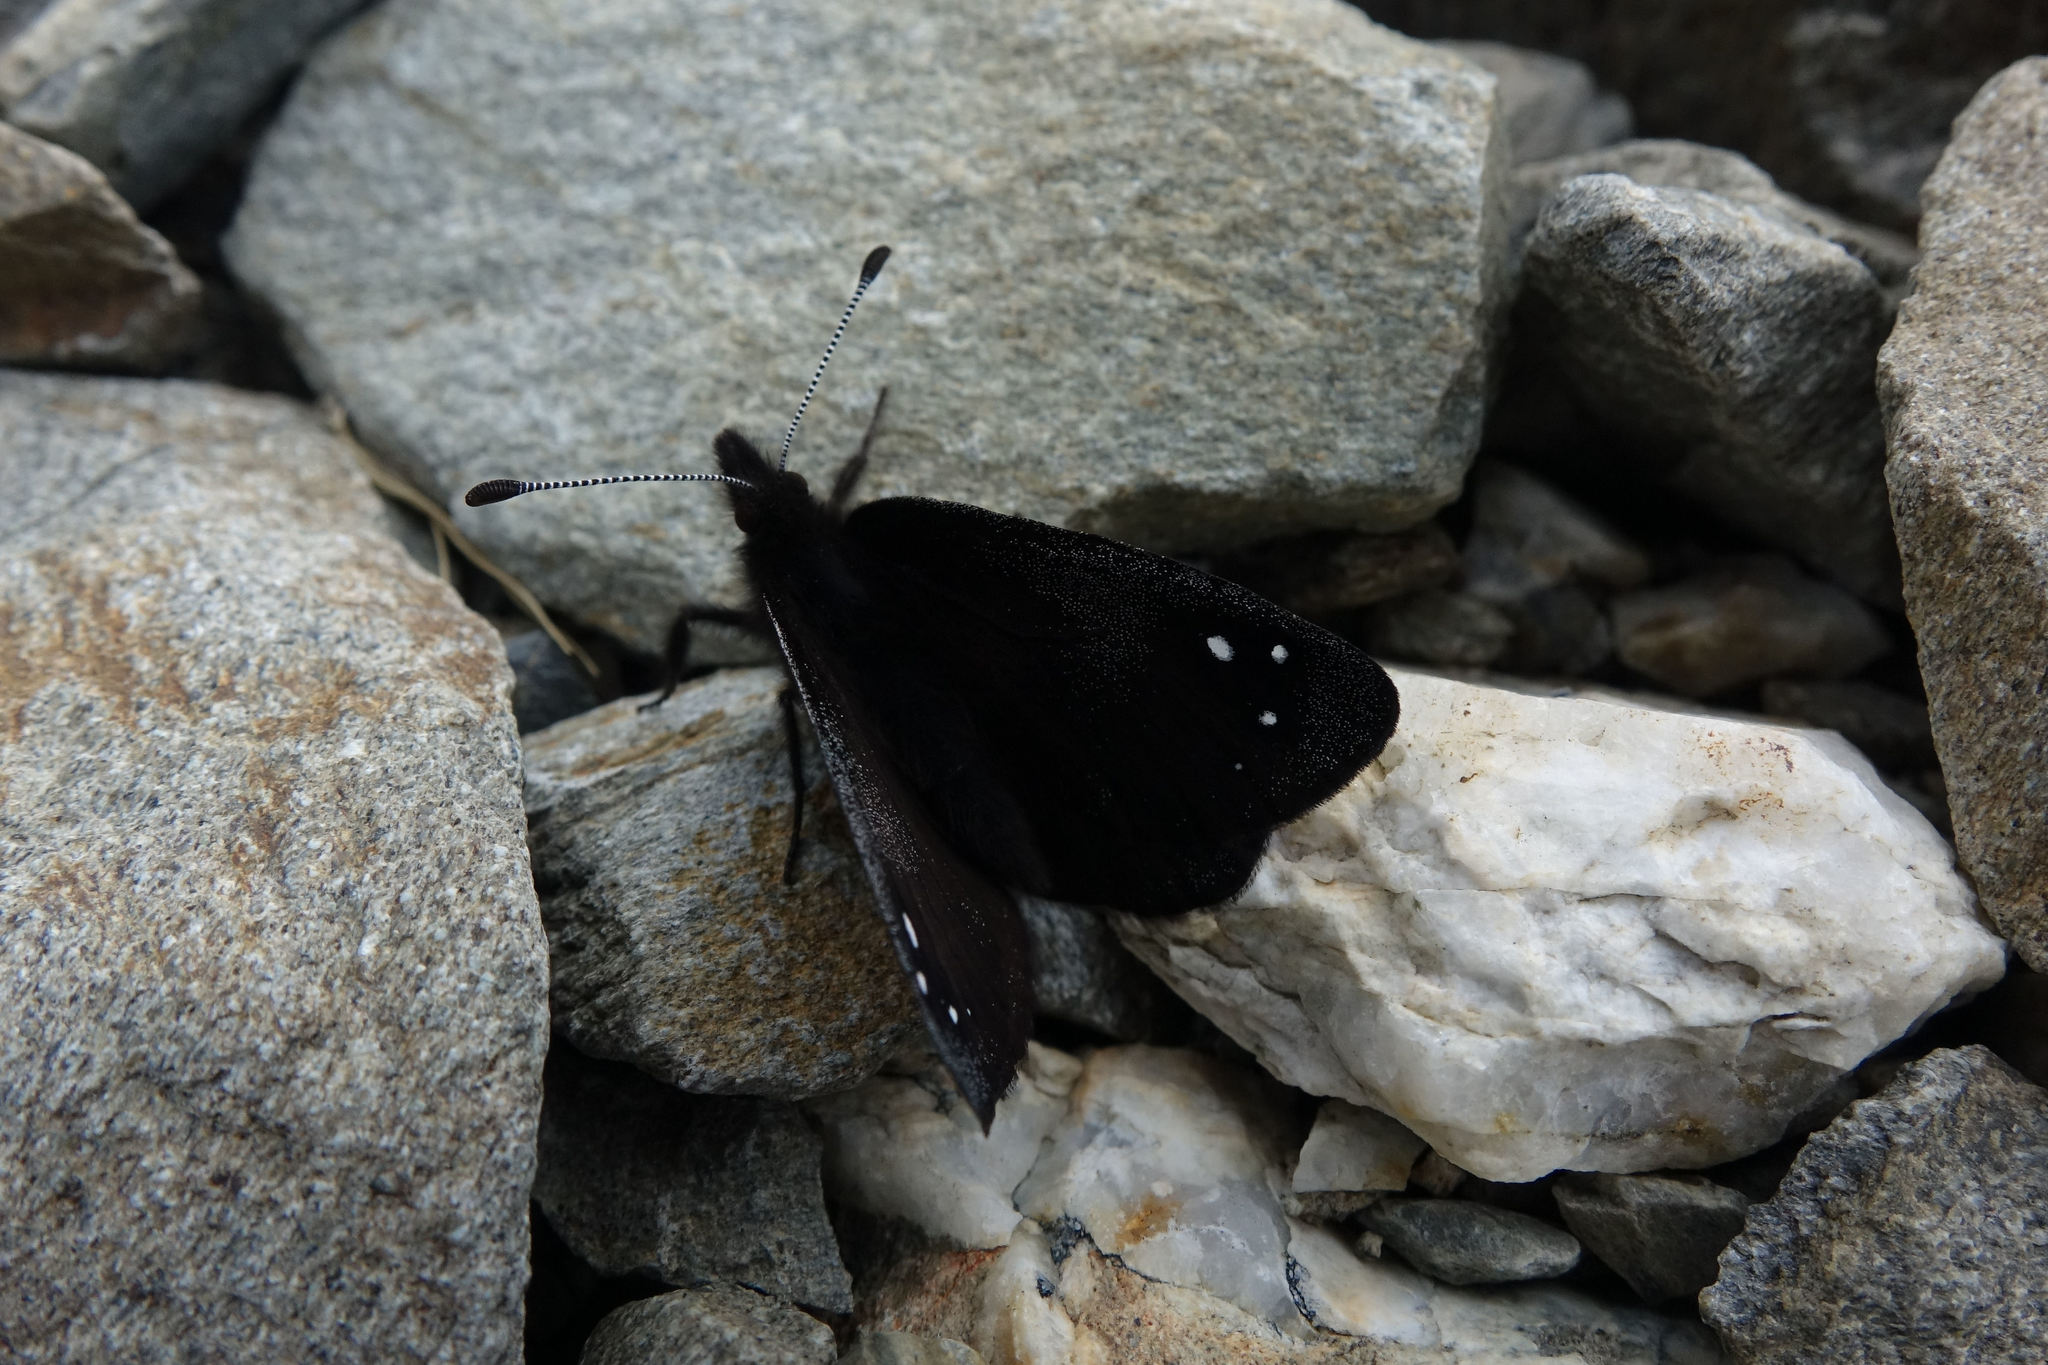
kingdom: Animalia
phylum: Arthropoda
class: Insecta
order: Lepidoptera
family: Nymphalidae
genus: Erebia
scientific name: Erebia Percnodaimon merula
